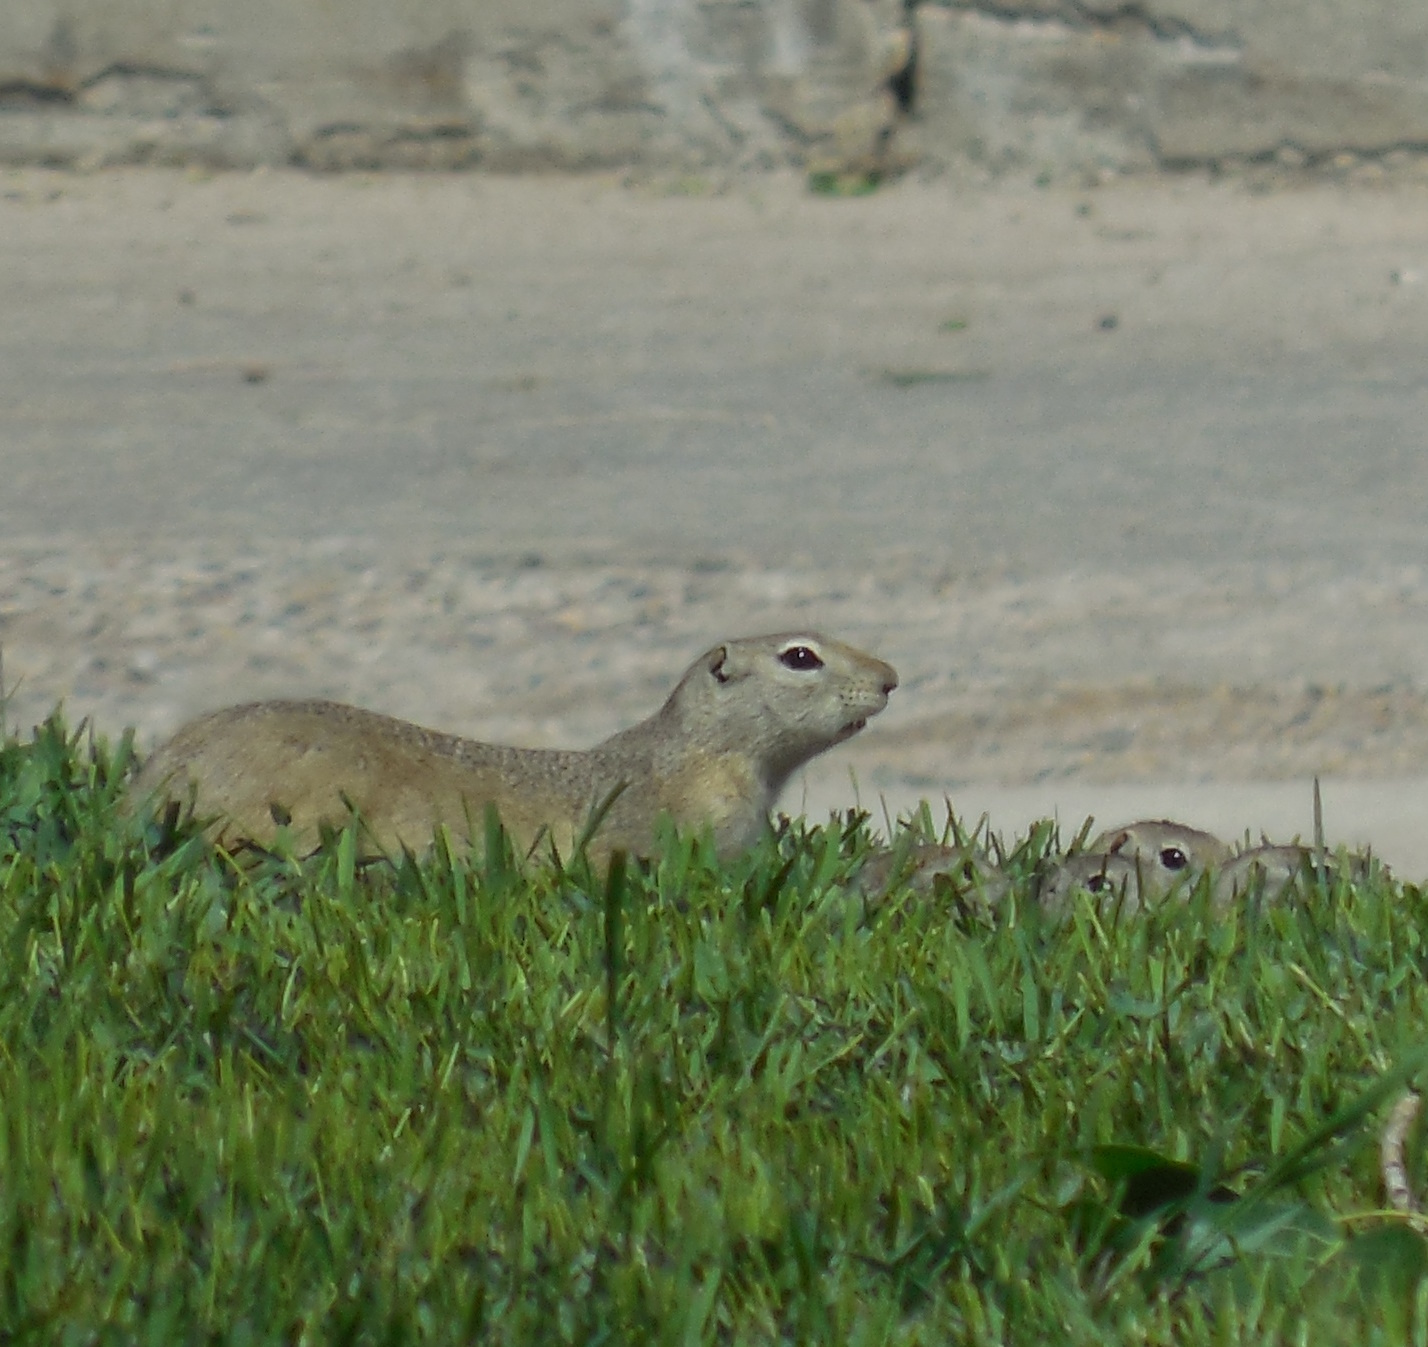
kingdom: Animalia
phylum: Chordata
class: Mammalia
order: Rodentia
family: Sciuridae
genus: Urocitellus
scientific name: Urocitellus richardsonii
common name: Richardson's ground squirrel
